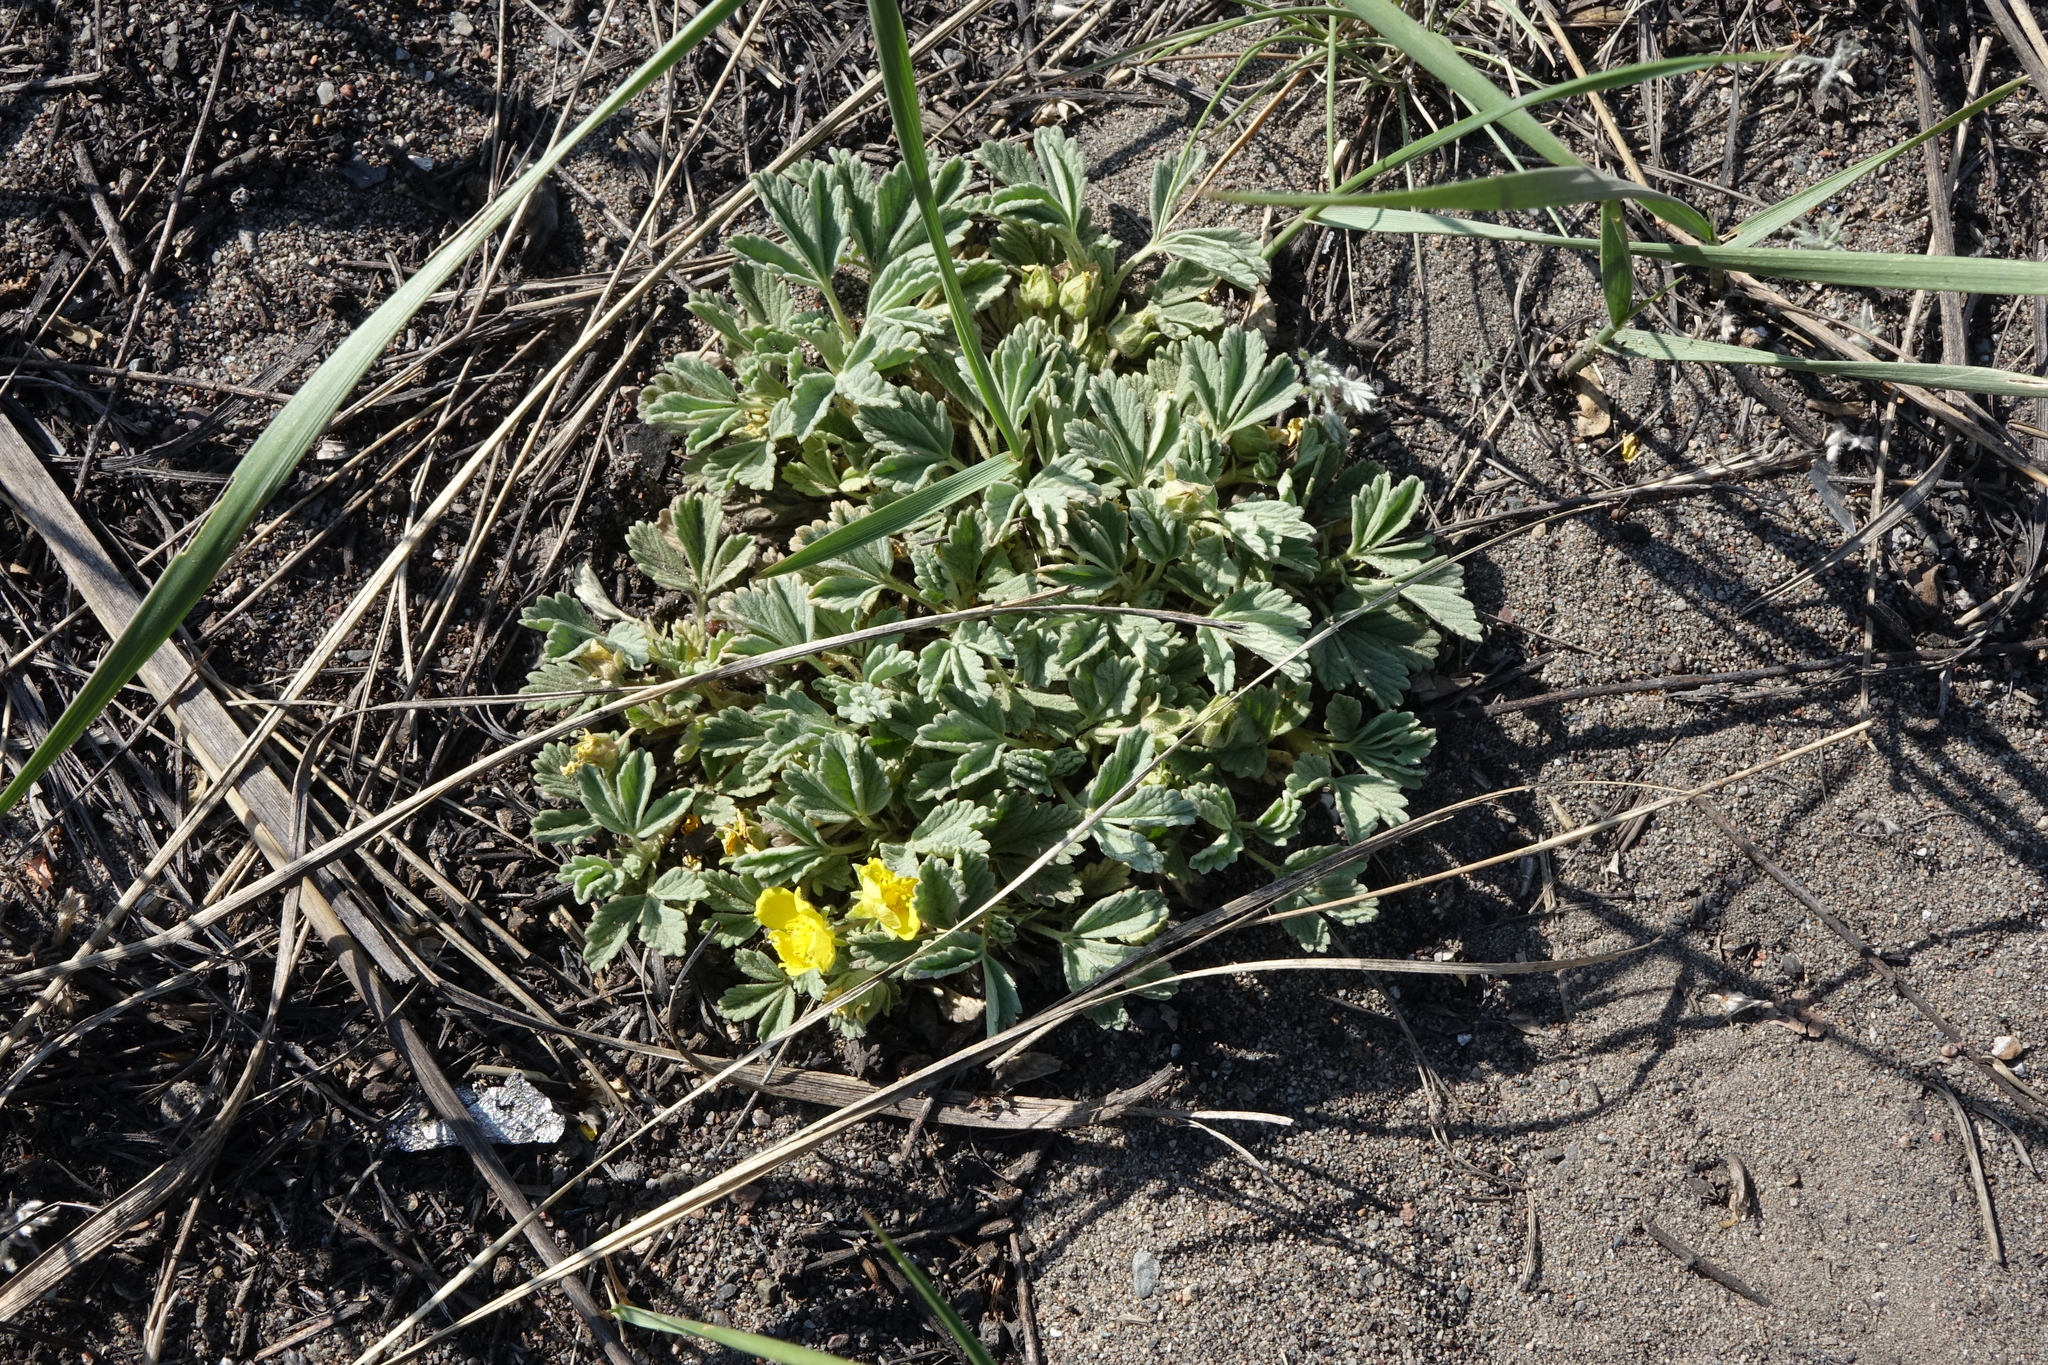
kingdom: Plantae
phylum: Tracheophyta
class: Magnoliopsida
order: Rosales
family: Rosaceae
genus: Potentilla
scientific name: Potentilla acaulis
